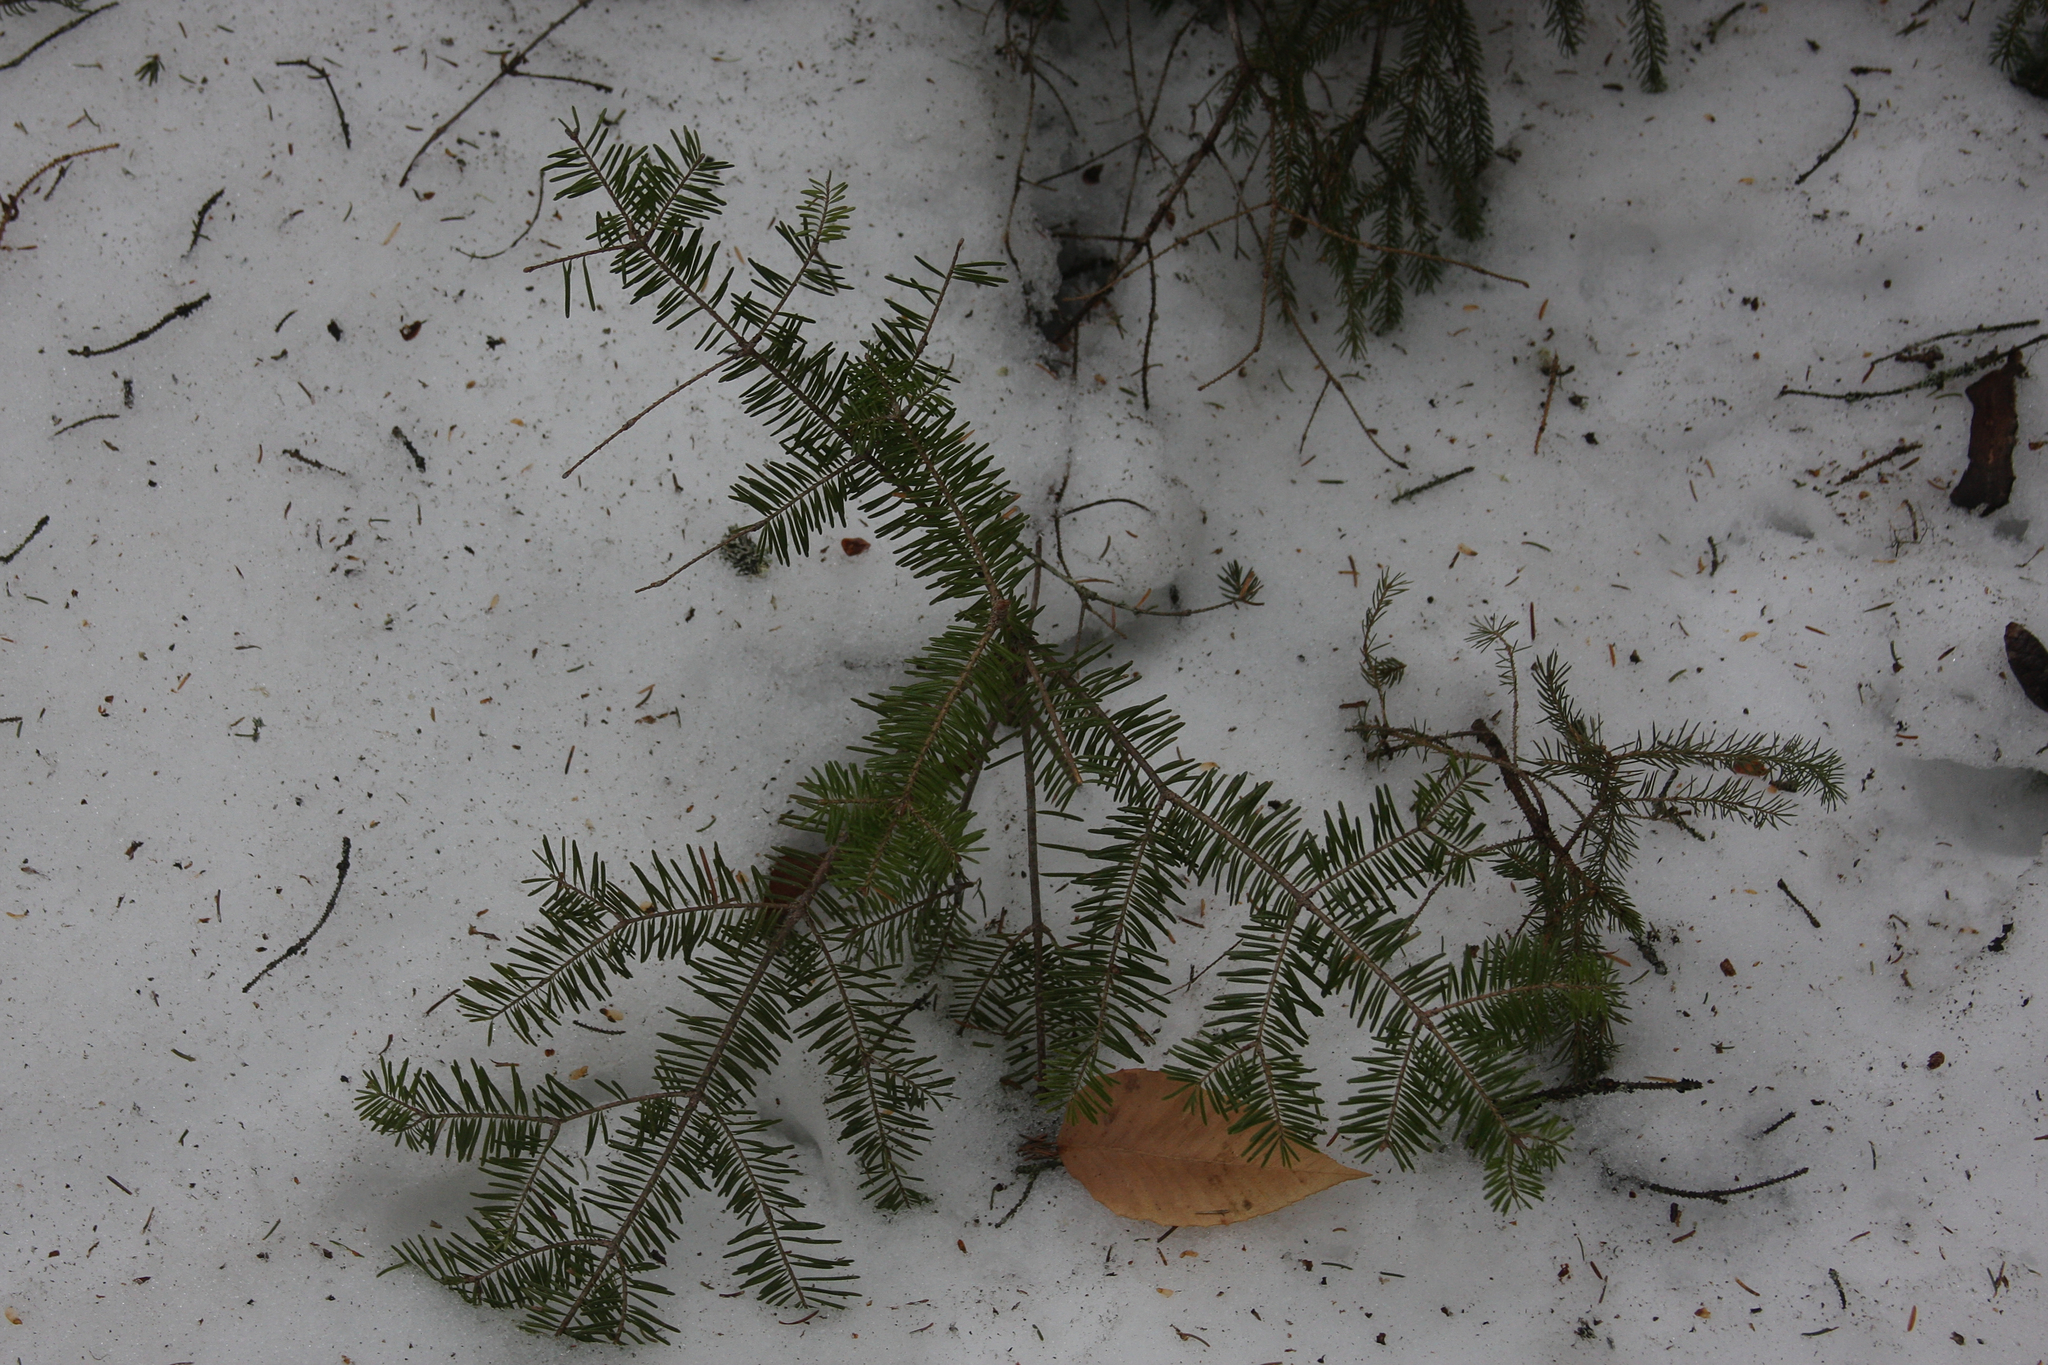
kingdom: Plantae
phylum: Tracheophyta
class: Pinopsida
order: Pinales
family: Pinaceae
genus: Abies
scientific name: Abies balsamea
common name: Balsam fir
